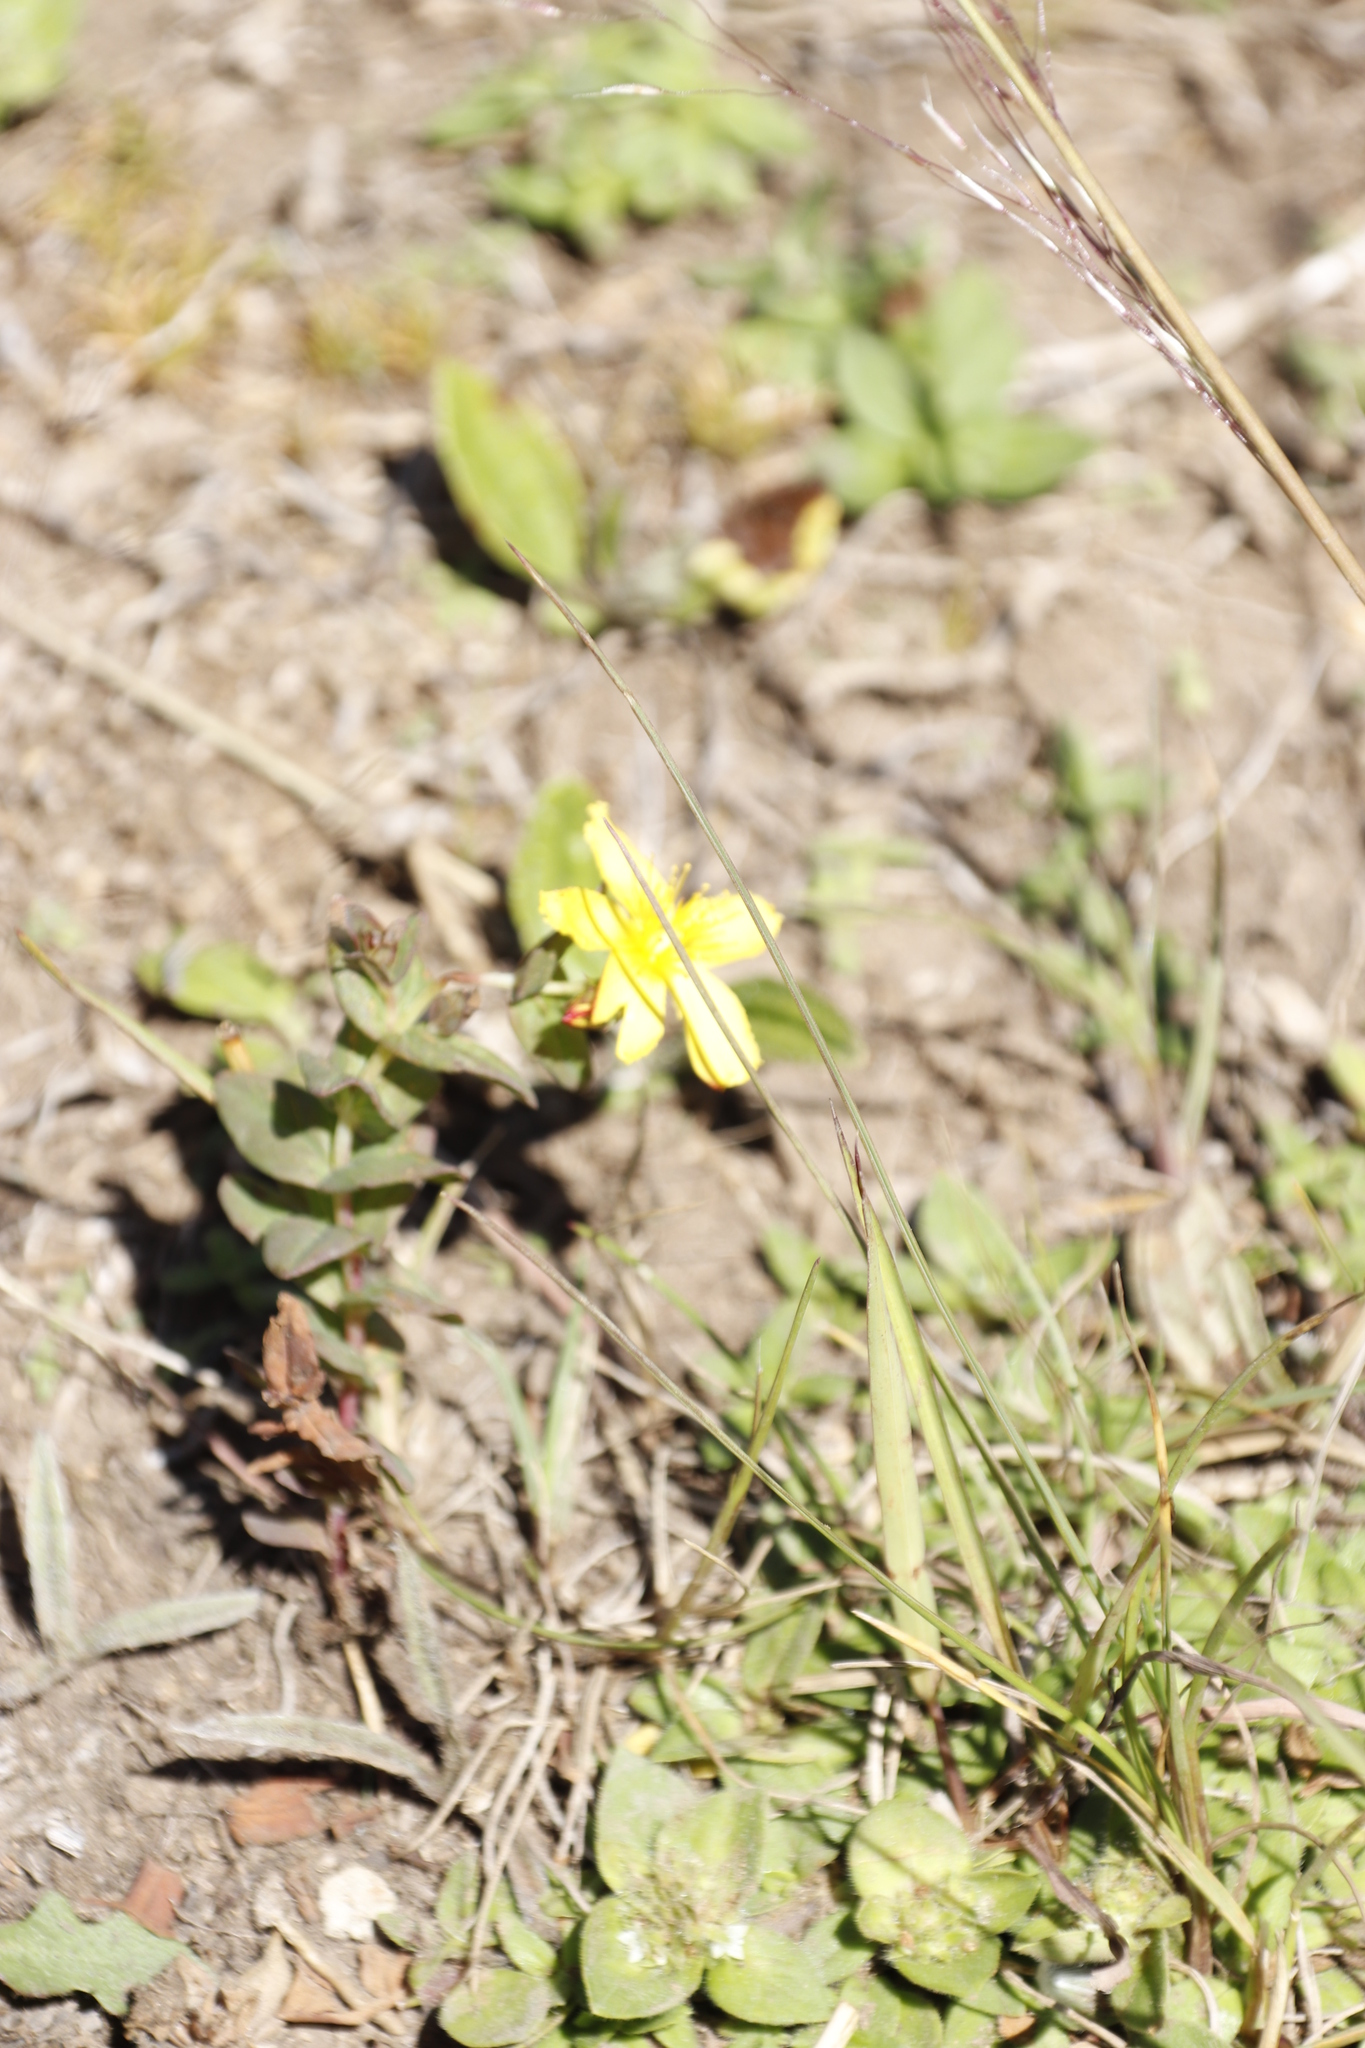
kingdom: Plantae
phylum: Tracheophyta
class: Magnoliopsida
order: Malpighiales
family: Hypericaceae
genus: Hypericum
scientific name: Hypericum aethiopicum
